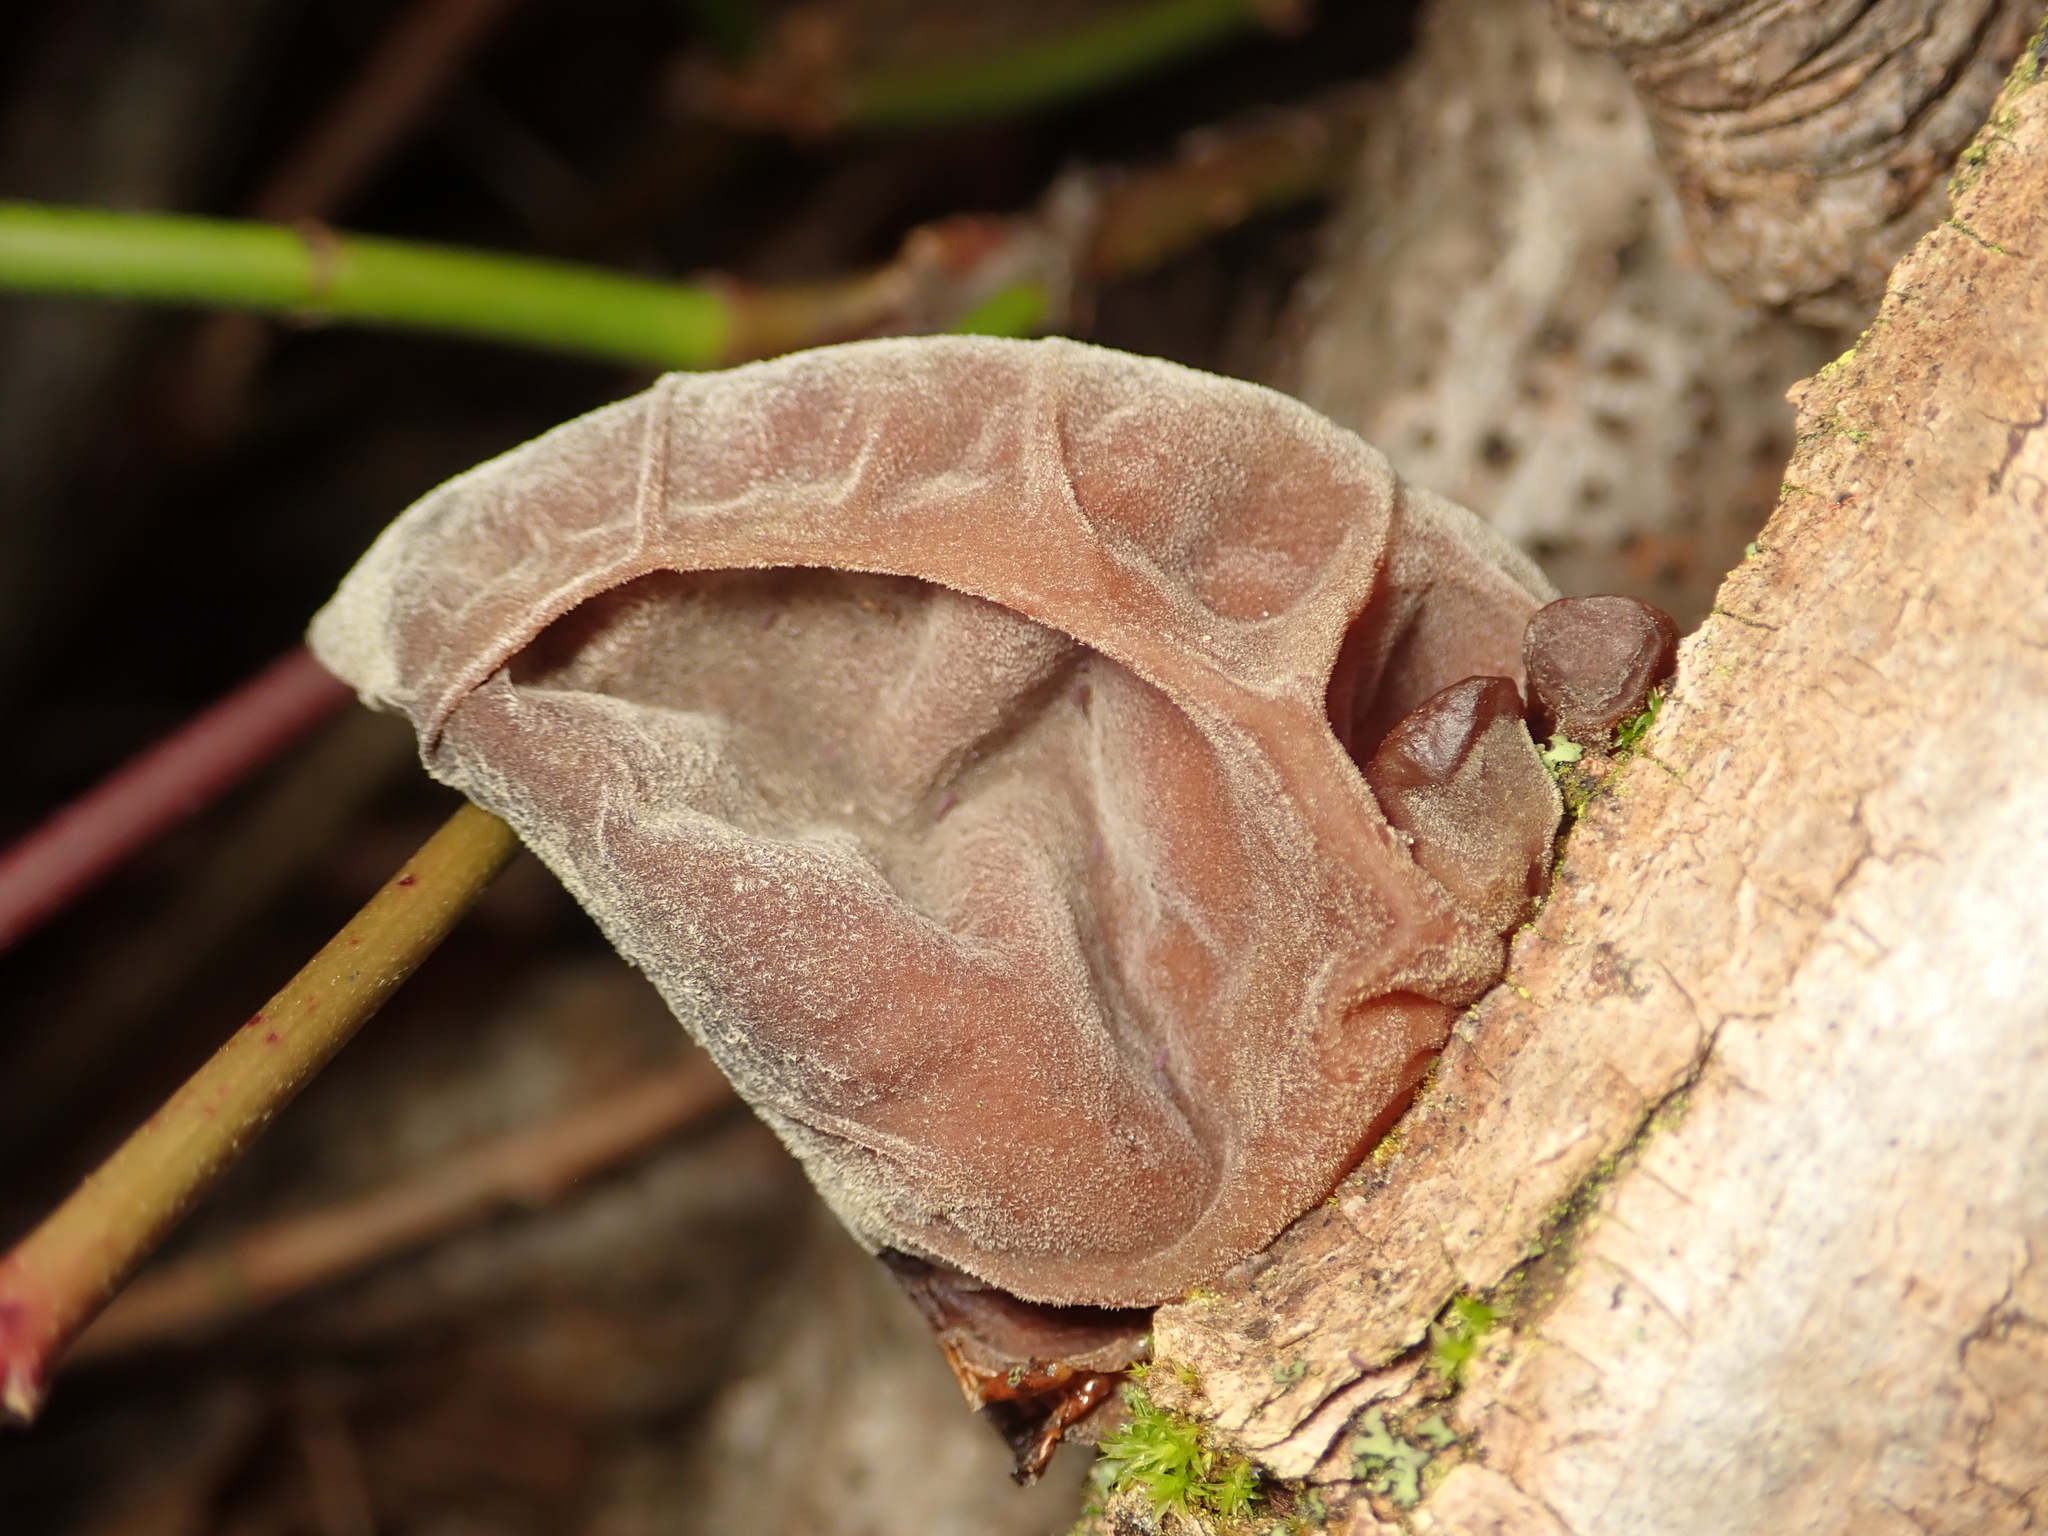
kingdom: Fungi
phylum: Basidiomycota
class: Agaricomycetes
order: Auriculariales
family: Auriculariaceae
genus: Auricularia
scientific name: Auricularia auricula-judae
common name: Jelly ear
